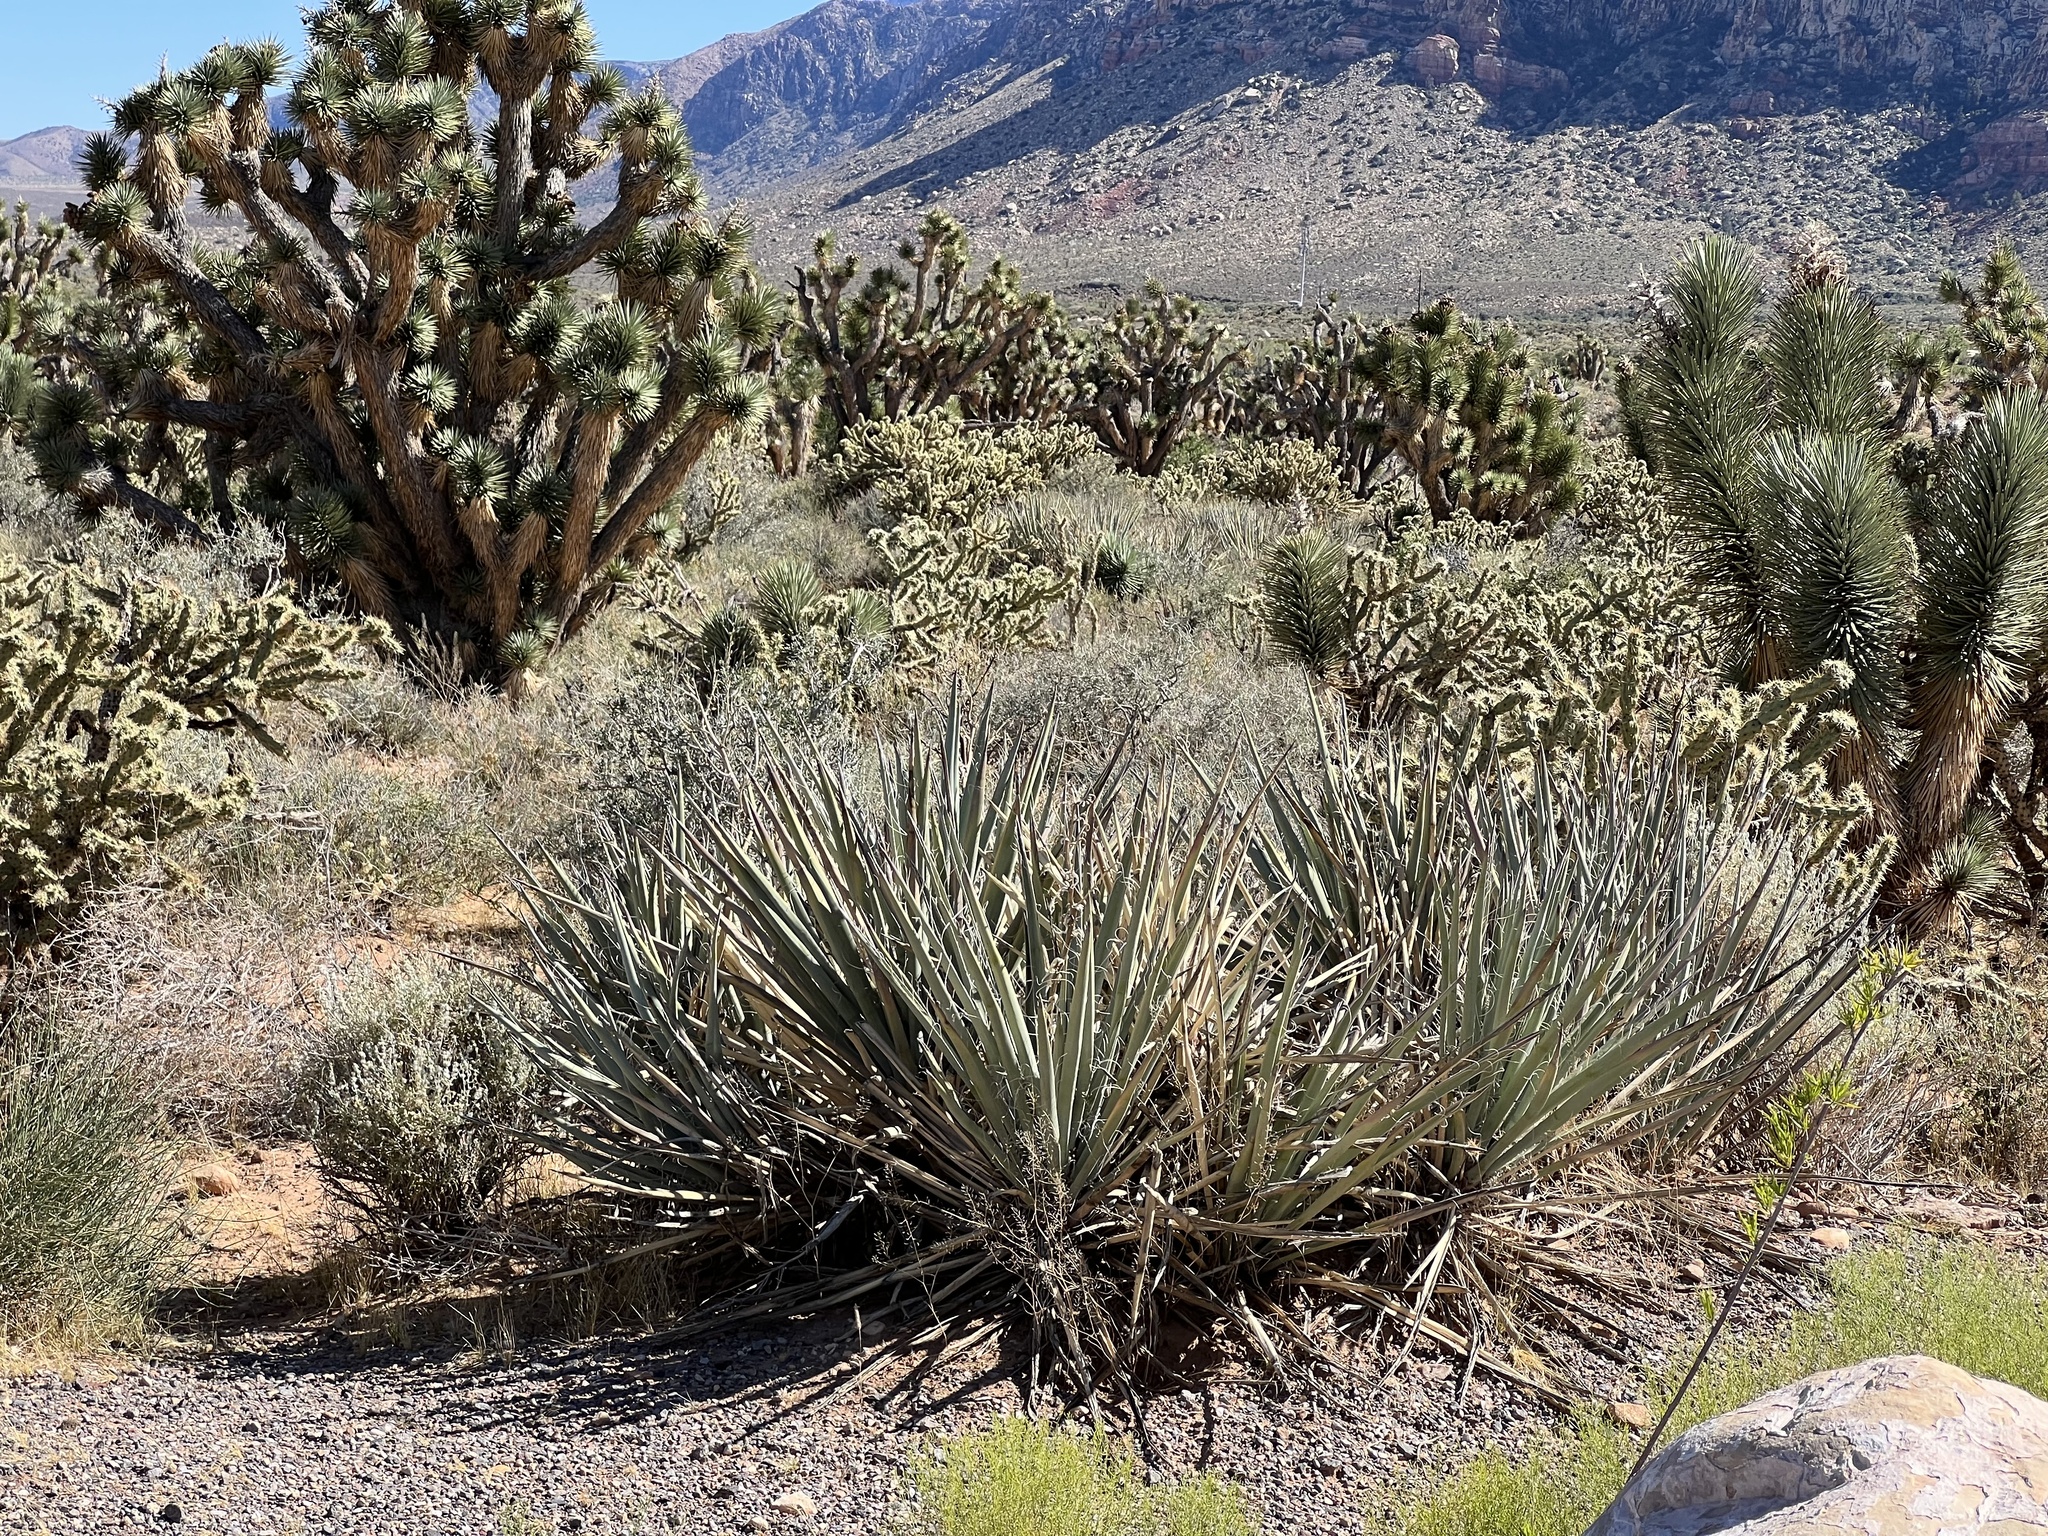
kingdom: Plantae
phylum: Tracheophyta
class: Liliopsida
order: Asparagales
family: Asparagaceae
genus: Yucca
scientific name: Yucca baccata
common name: Banana yucca
